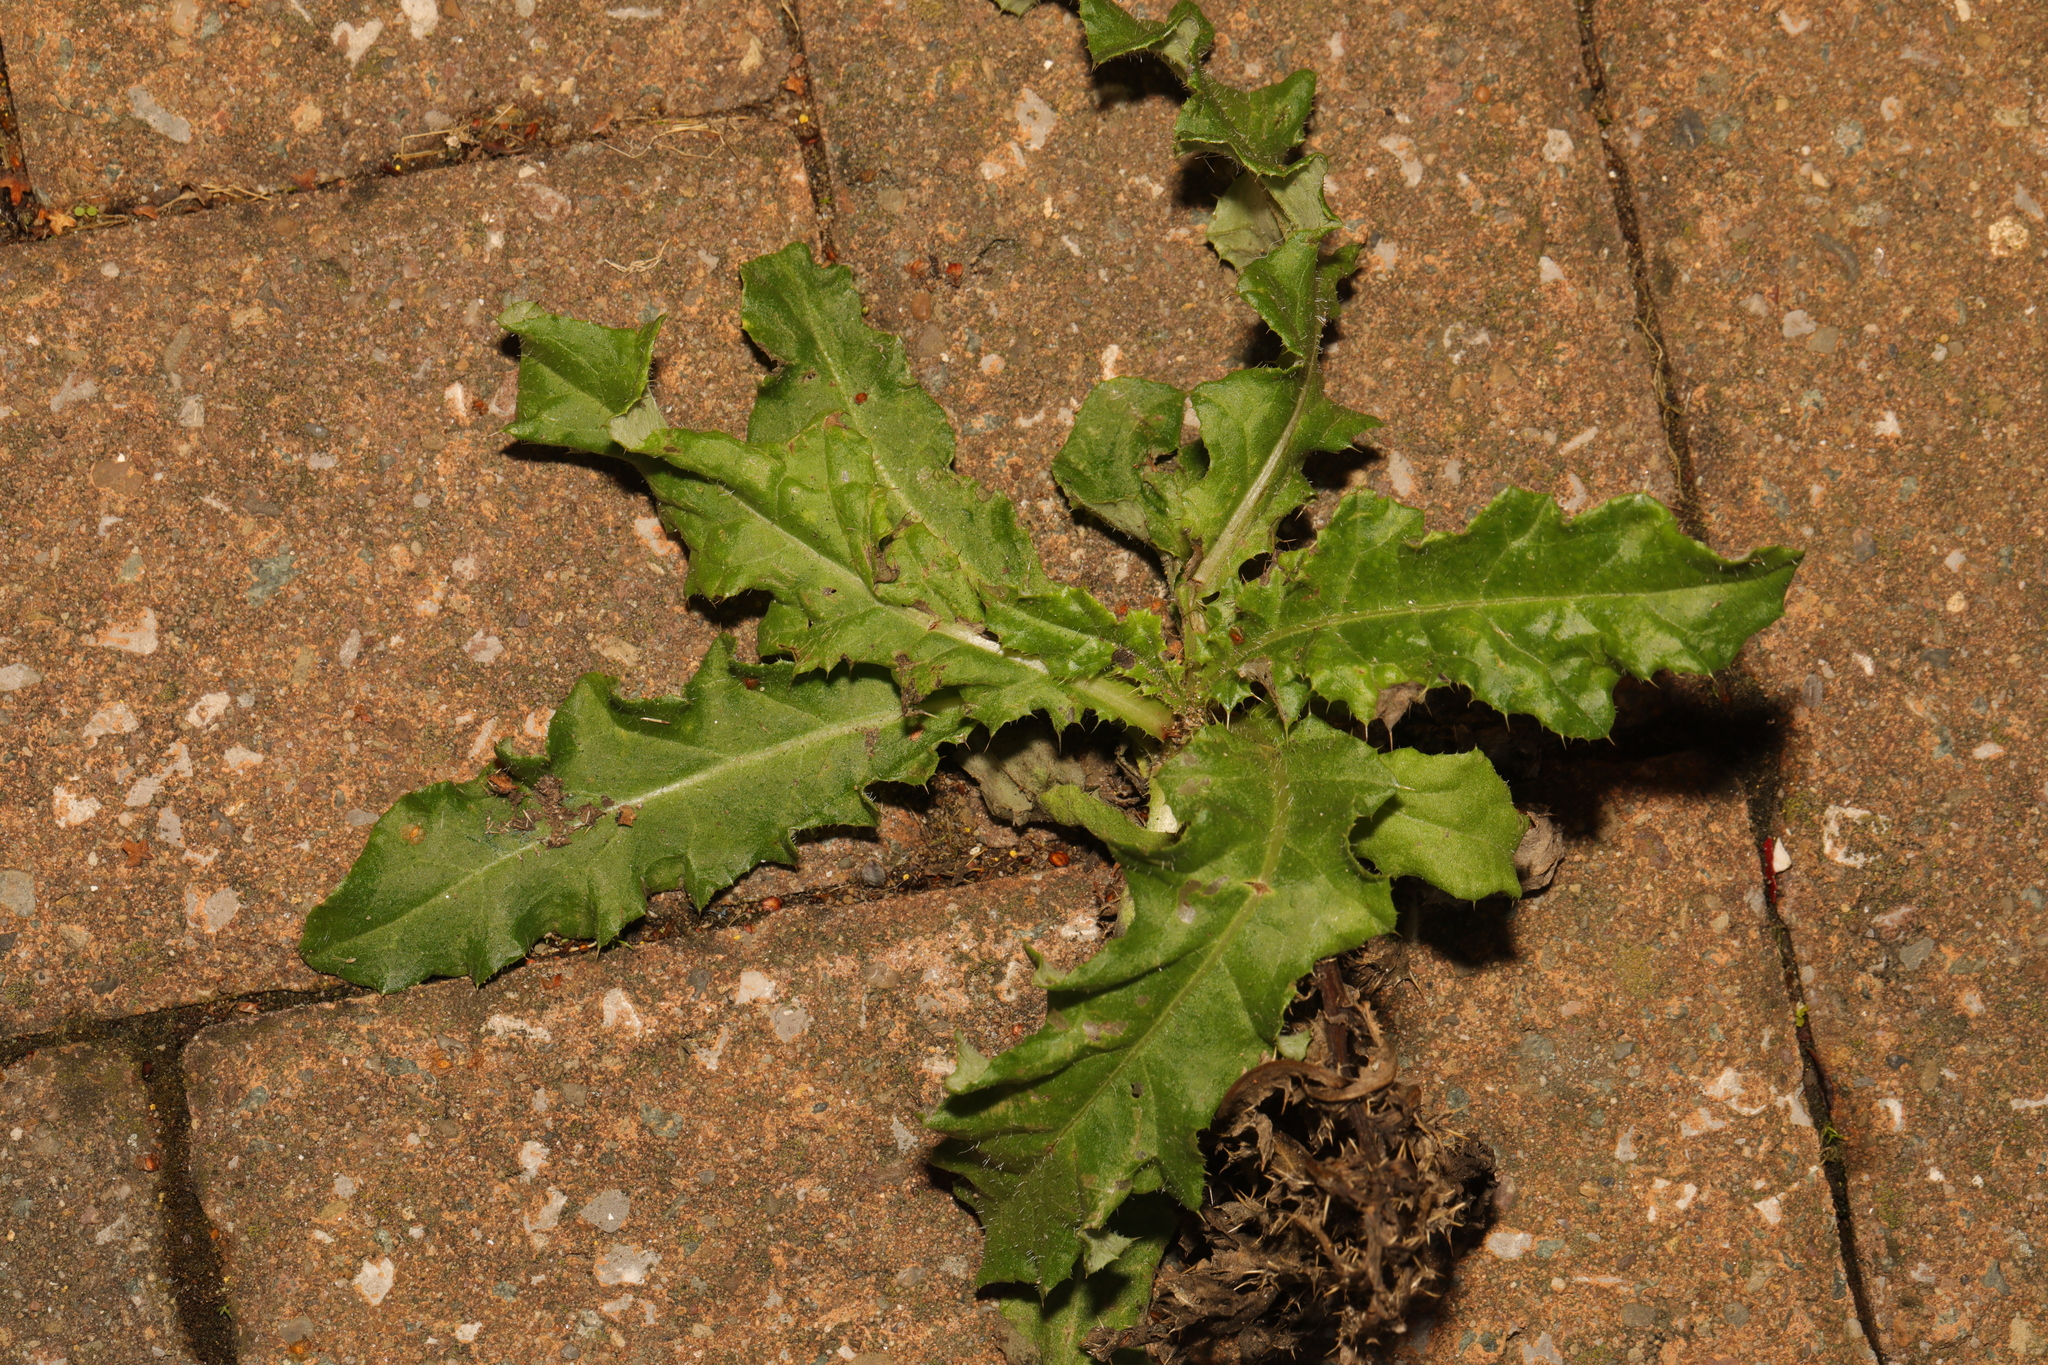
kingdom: Plantae
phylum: Tracheophyta
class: Magnoliopsida
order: Asterales
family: Asteraceae
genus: Cirsium
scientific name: Cirsium arvense
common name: Creeping thistle
